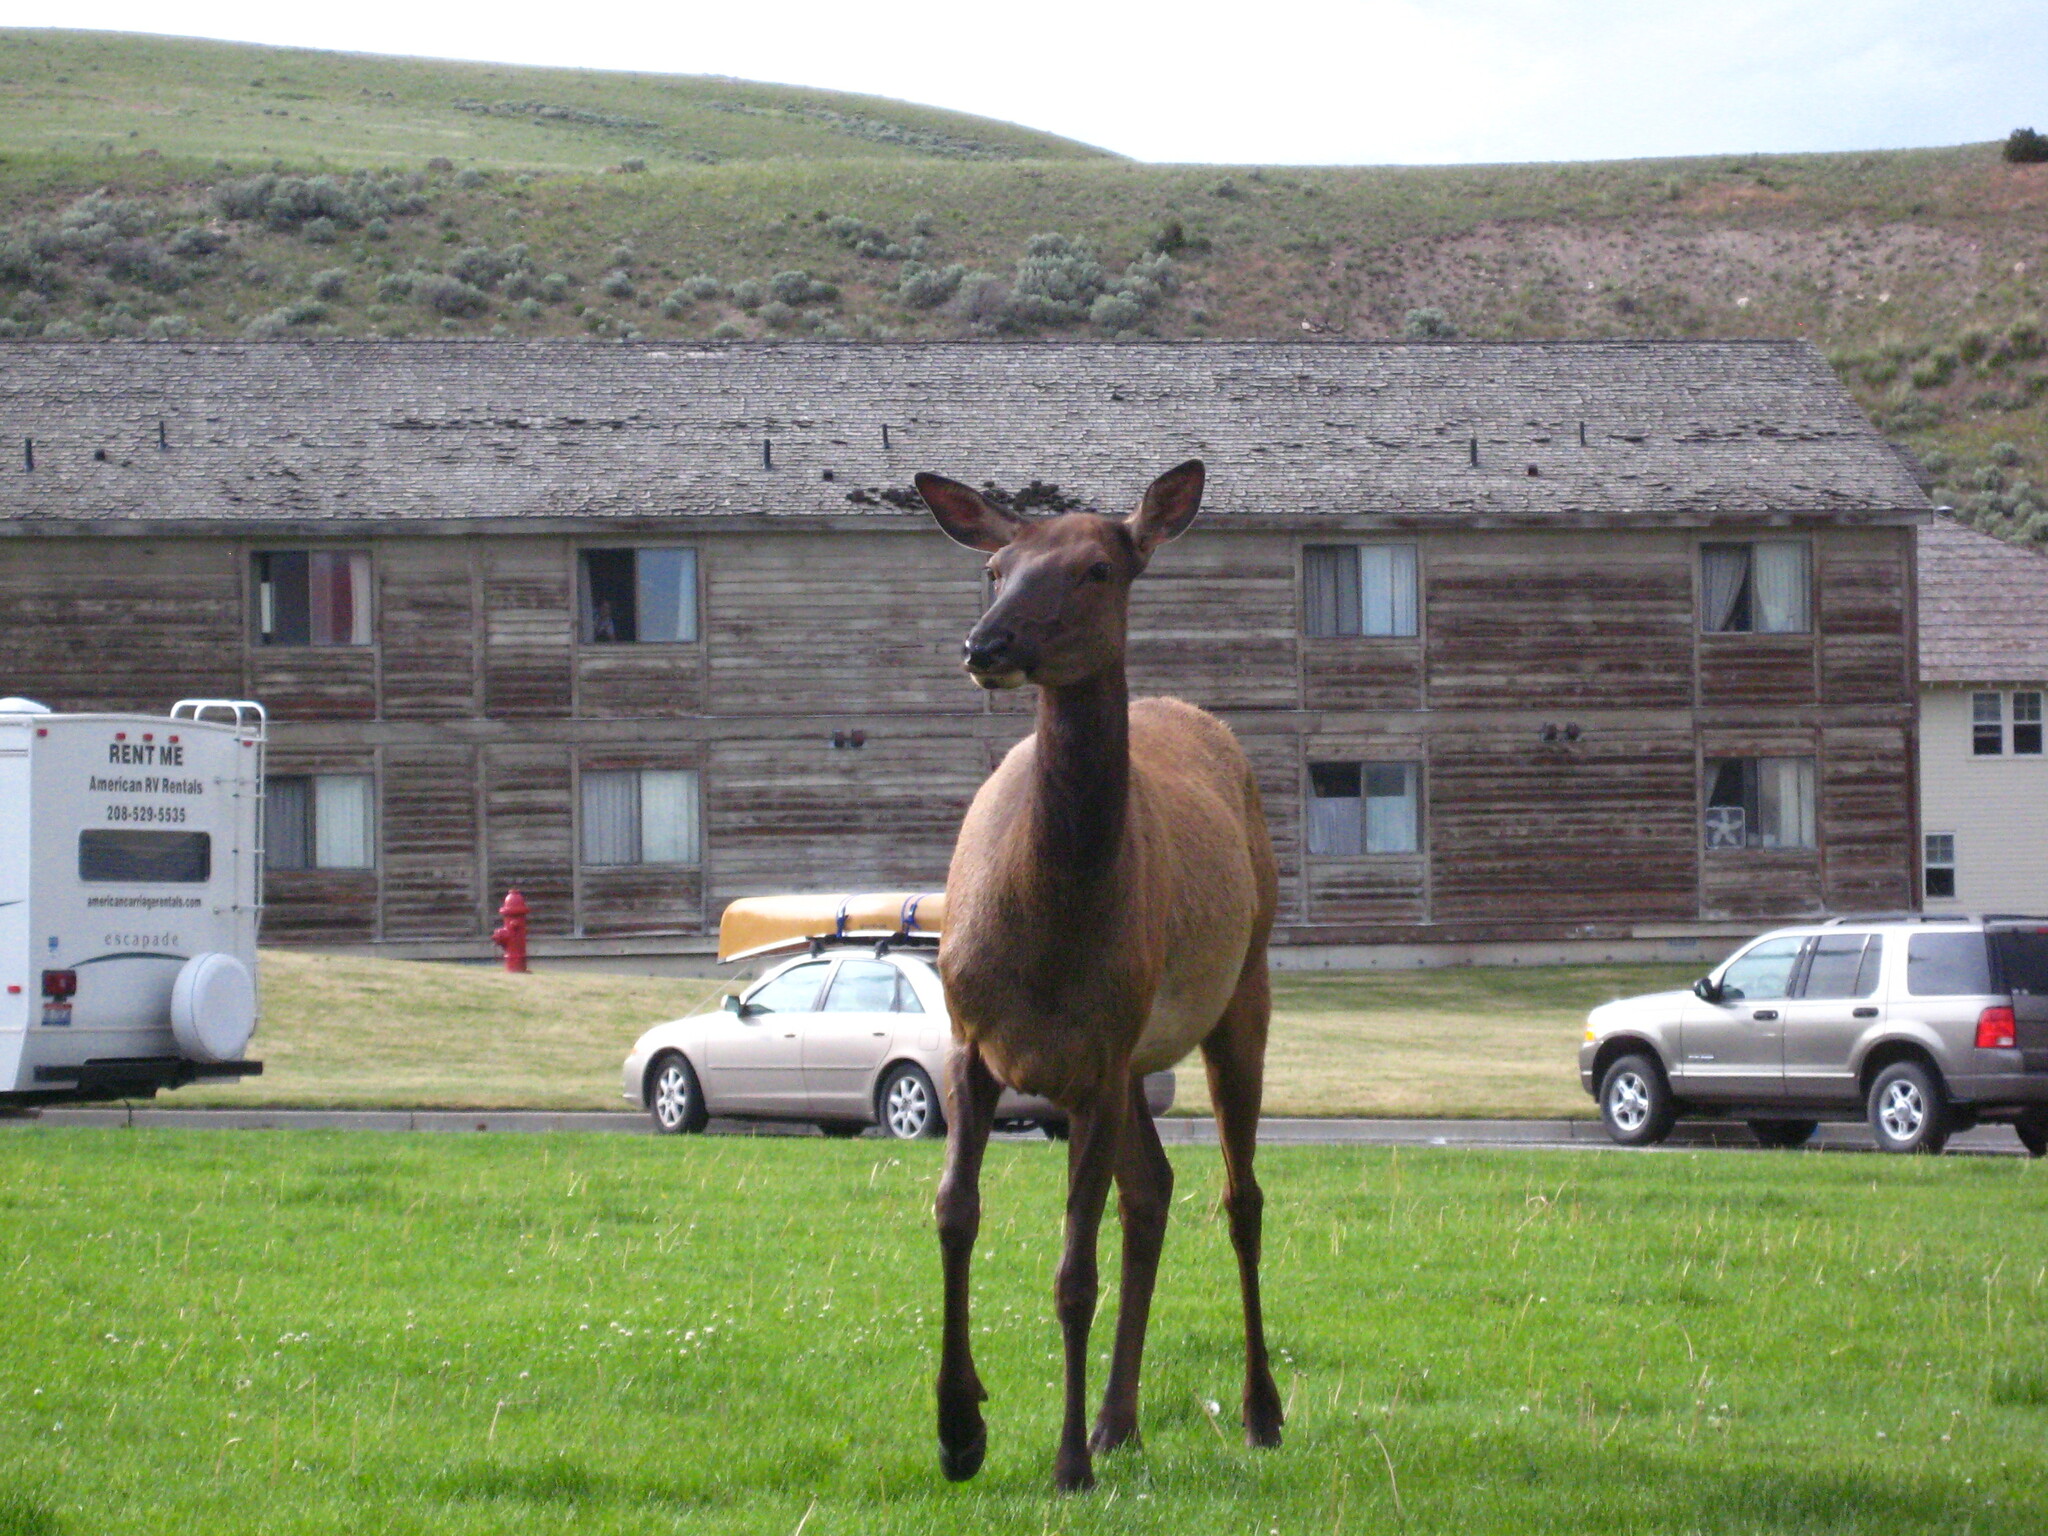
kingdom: Animalia
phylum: Chordata
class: Mammalia
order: Artiodactyla
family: Cervidae
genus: Cervus
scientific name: Cervus elaphus
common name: Red deer
